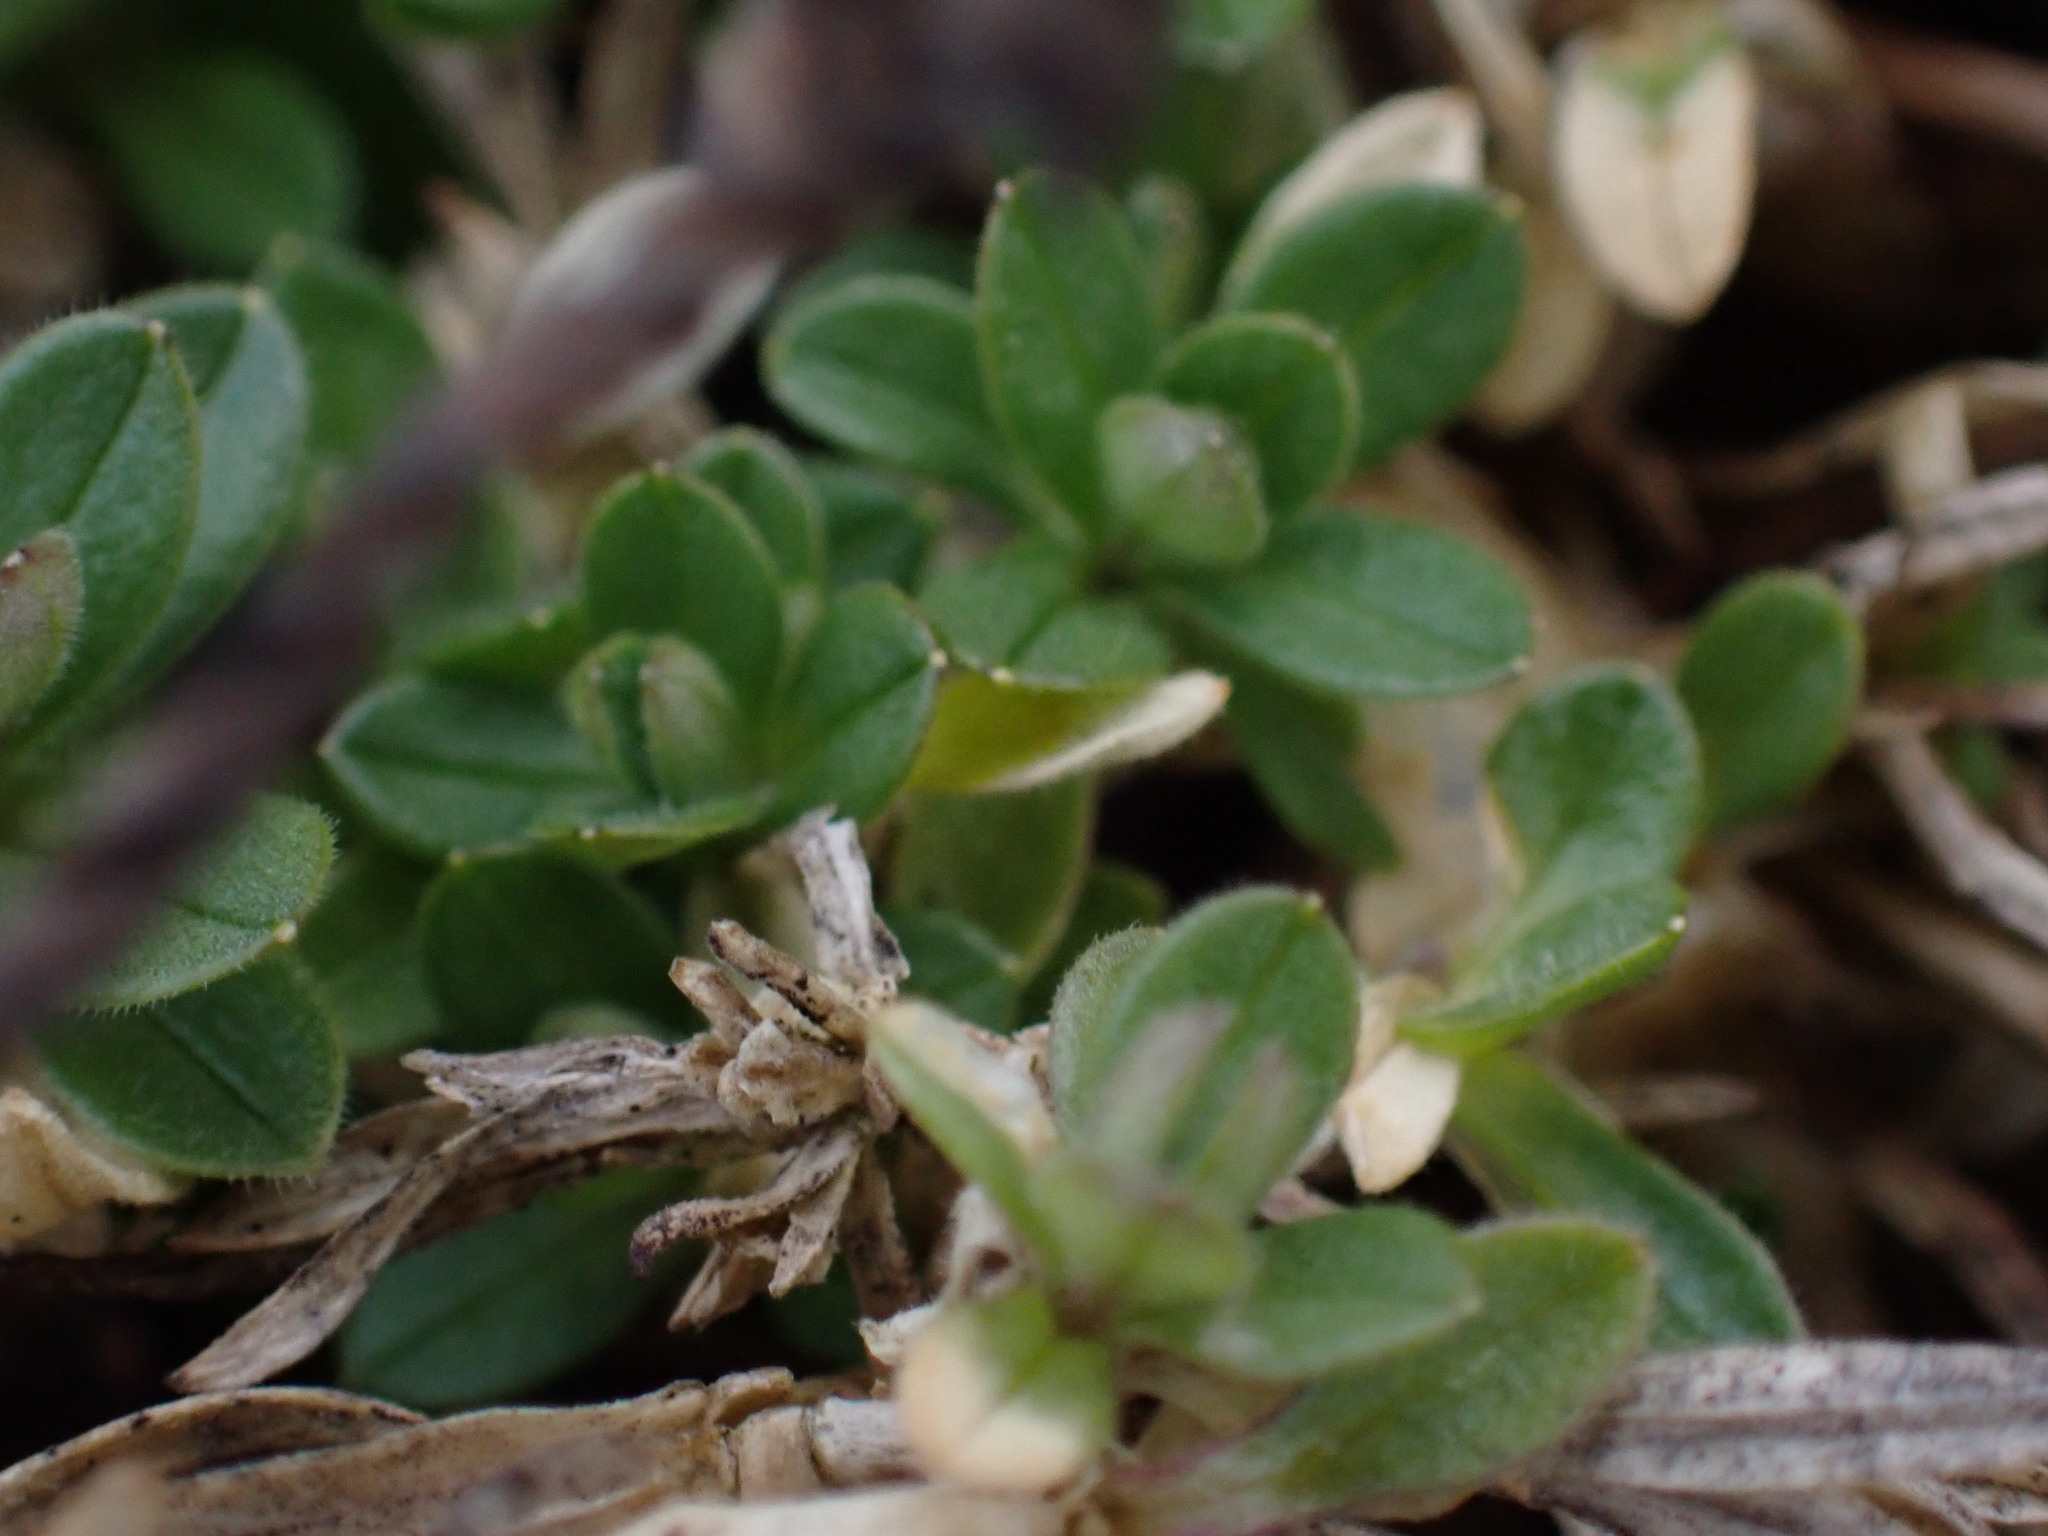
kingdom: Plantae
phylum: Tracheophyta
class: Magnoliopsida
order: Caryophyllales
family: Caryophyllaceae
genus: Cerastium
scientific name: Cerastium arvense
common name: Field mouse-ear
